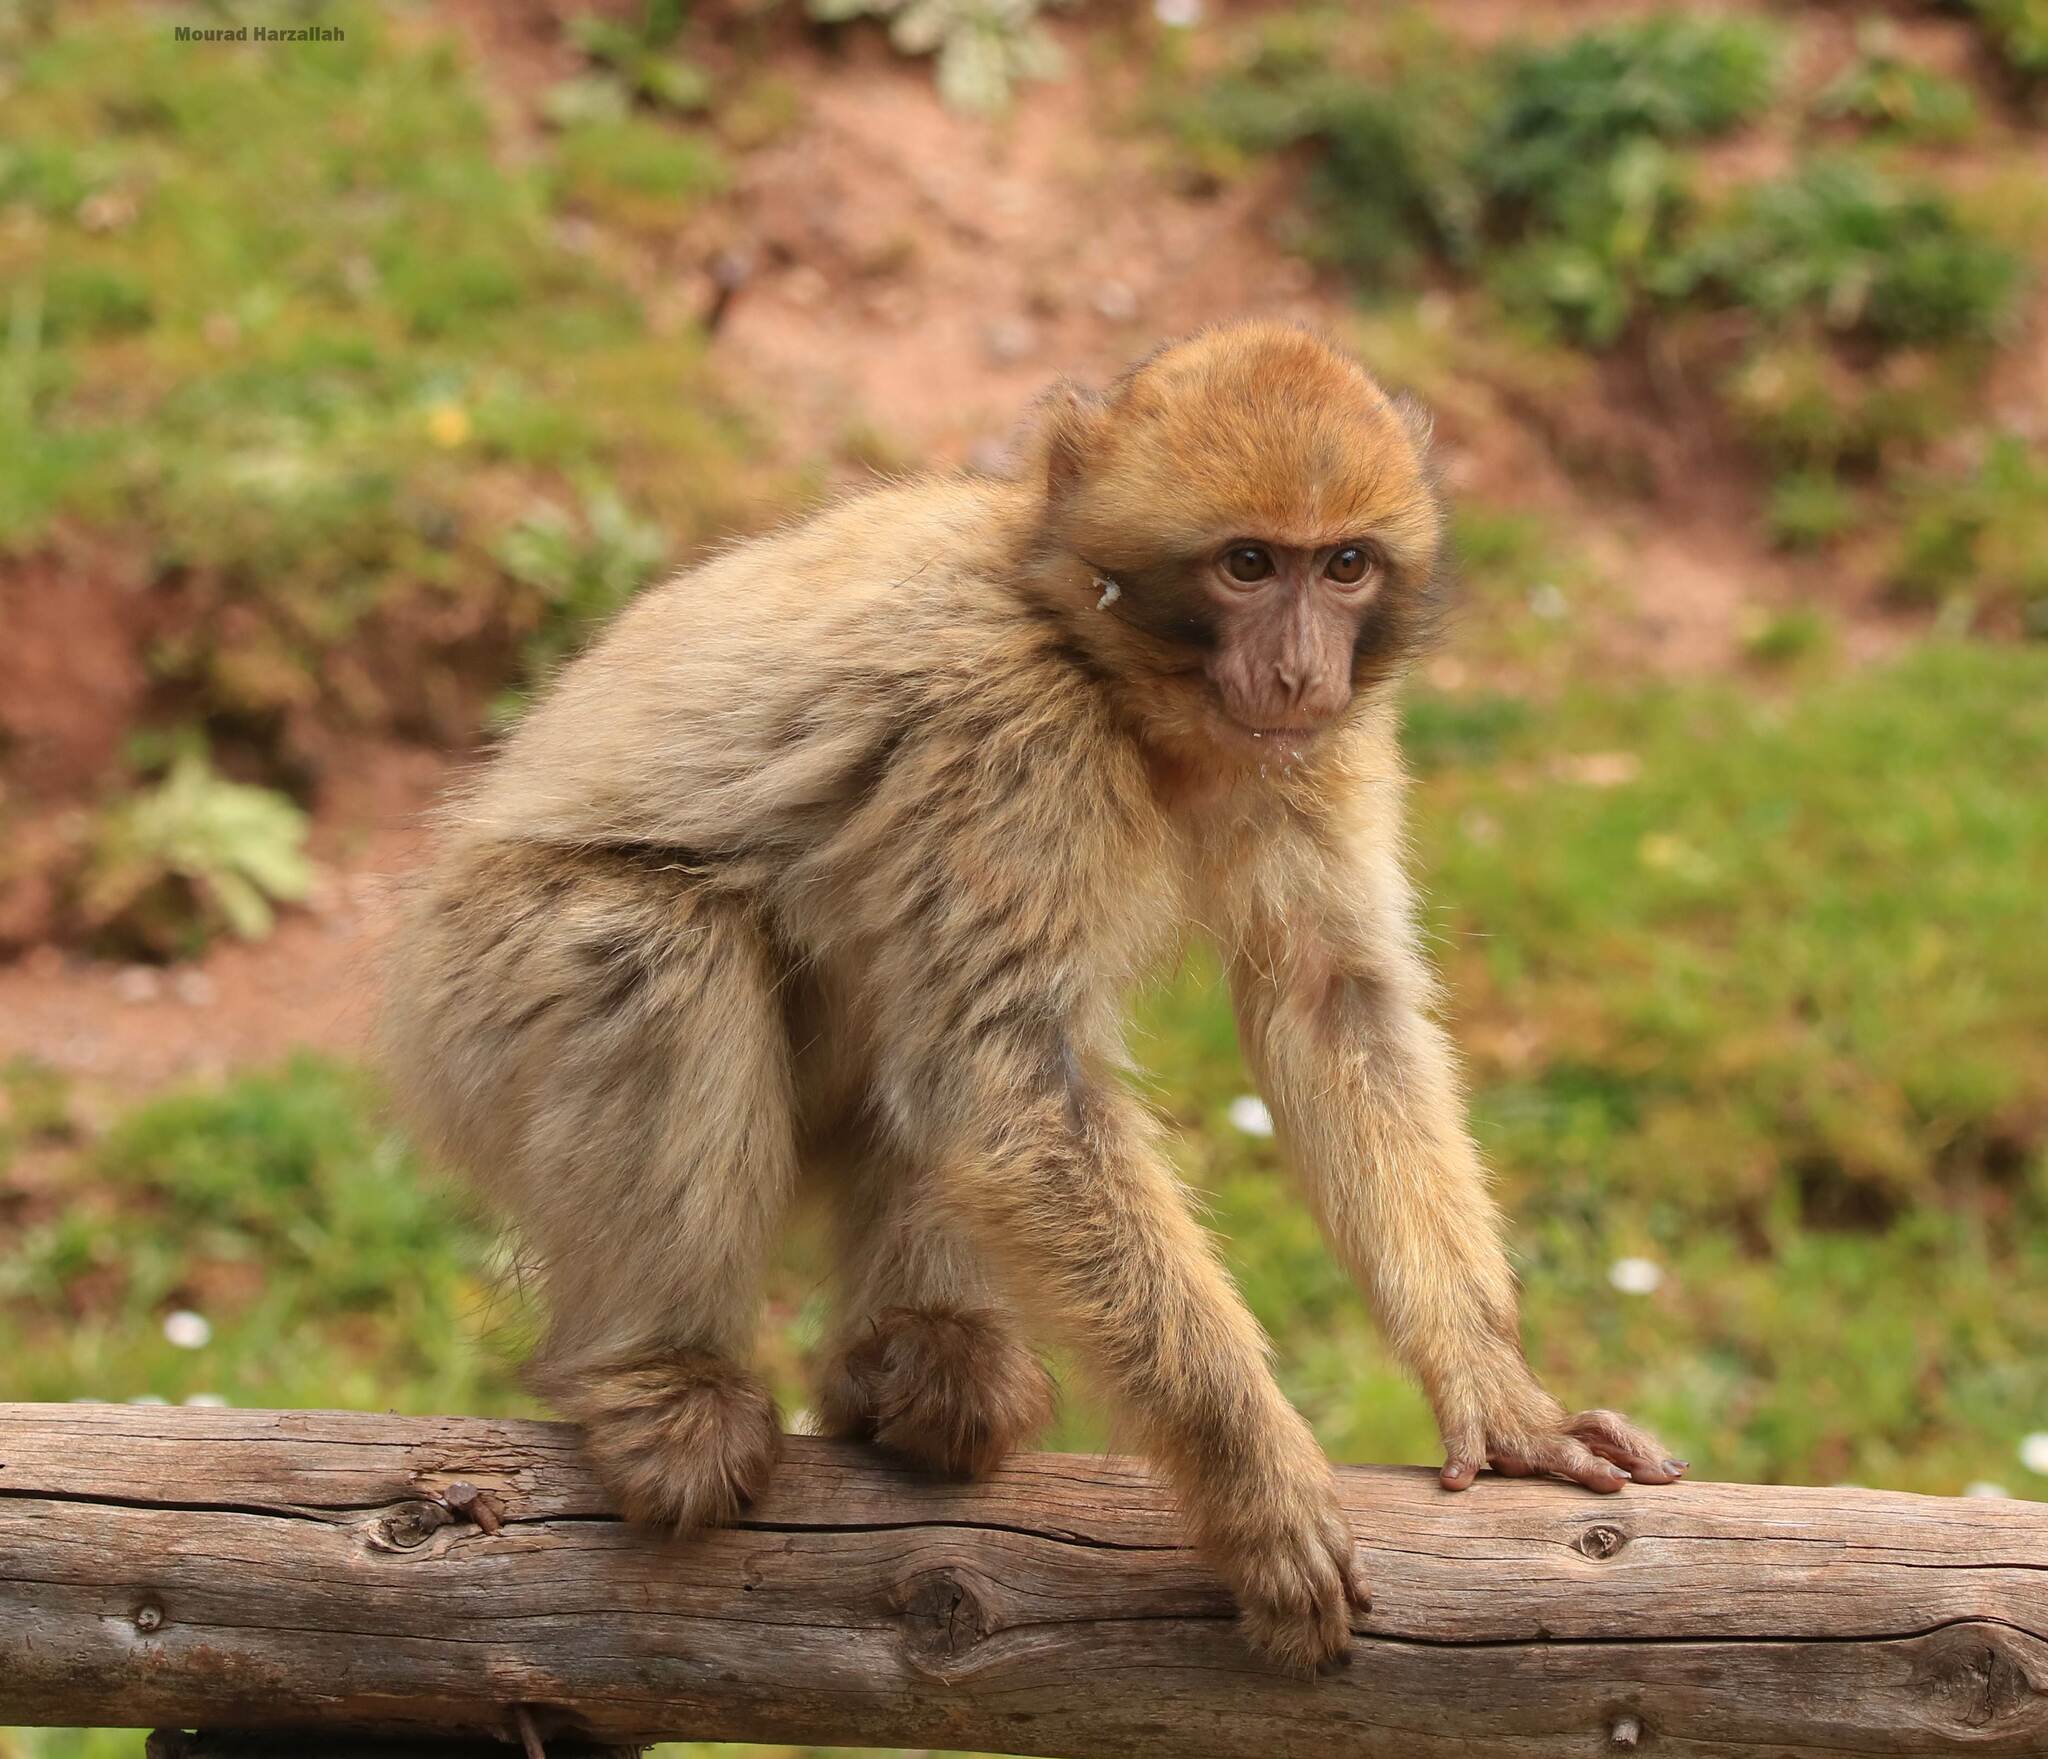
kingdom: Animalia
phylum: Chordata
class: Mammalia
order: Primates
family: Cercopithecidae
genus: Macaca
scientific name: Macaca sylvanus
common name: Barbary macaque
